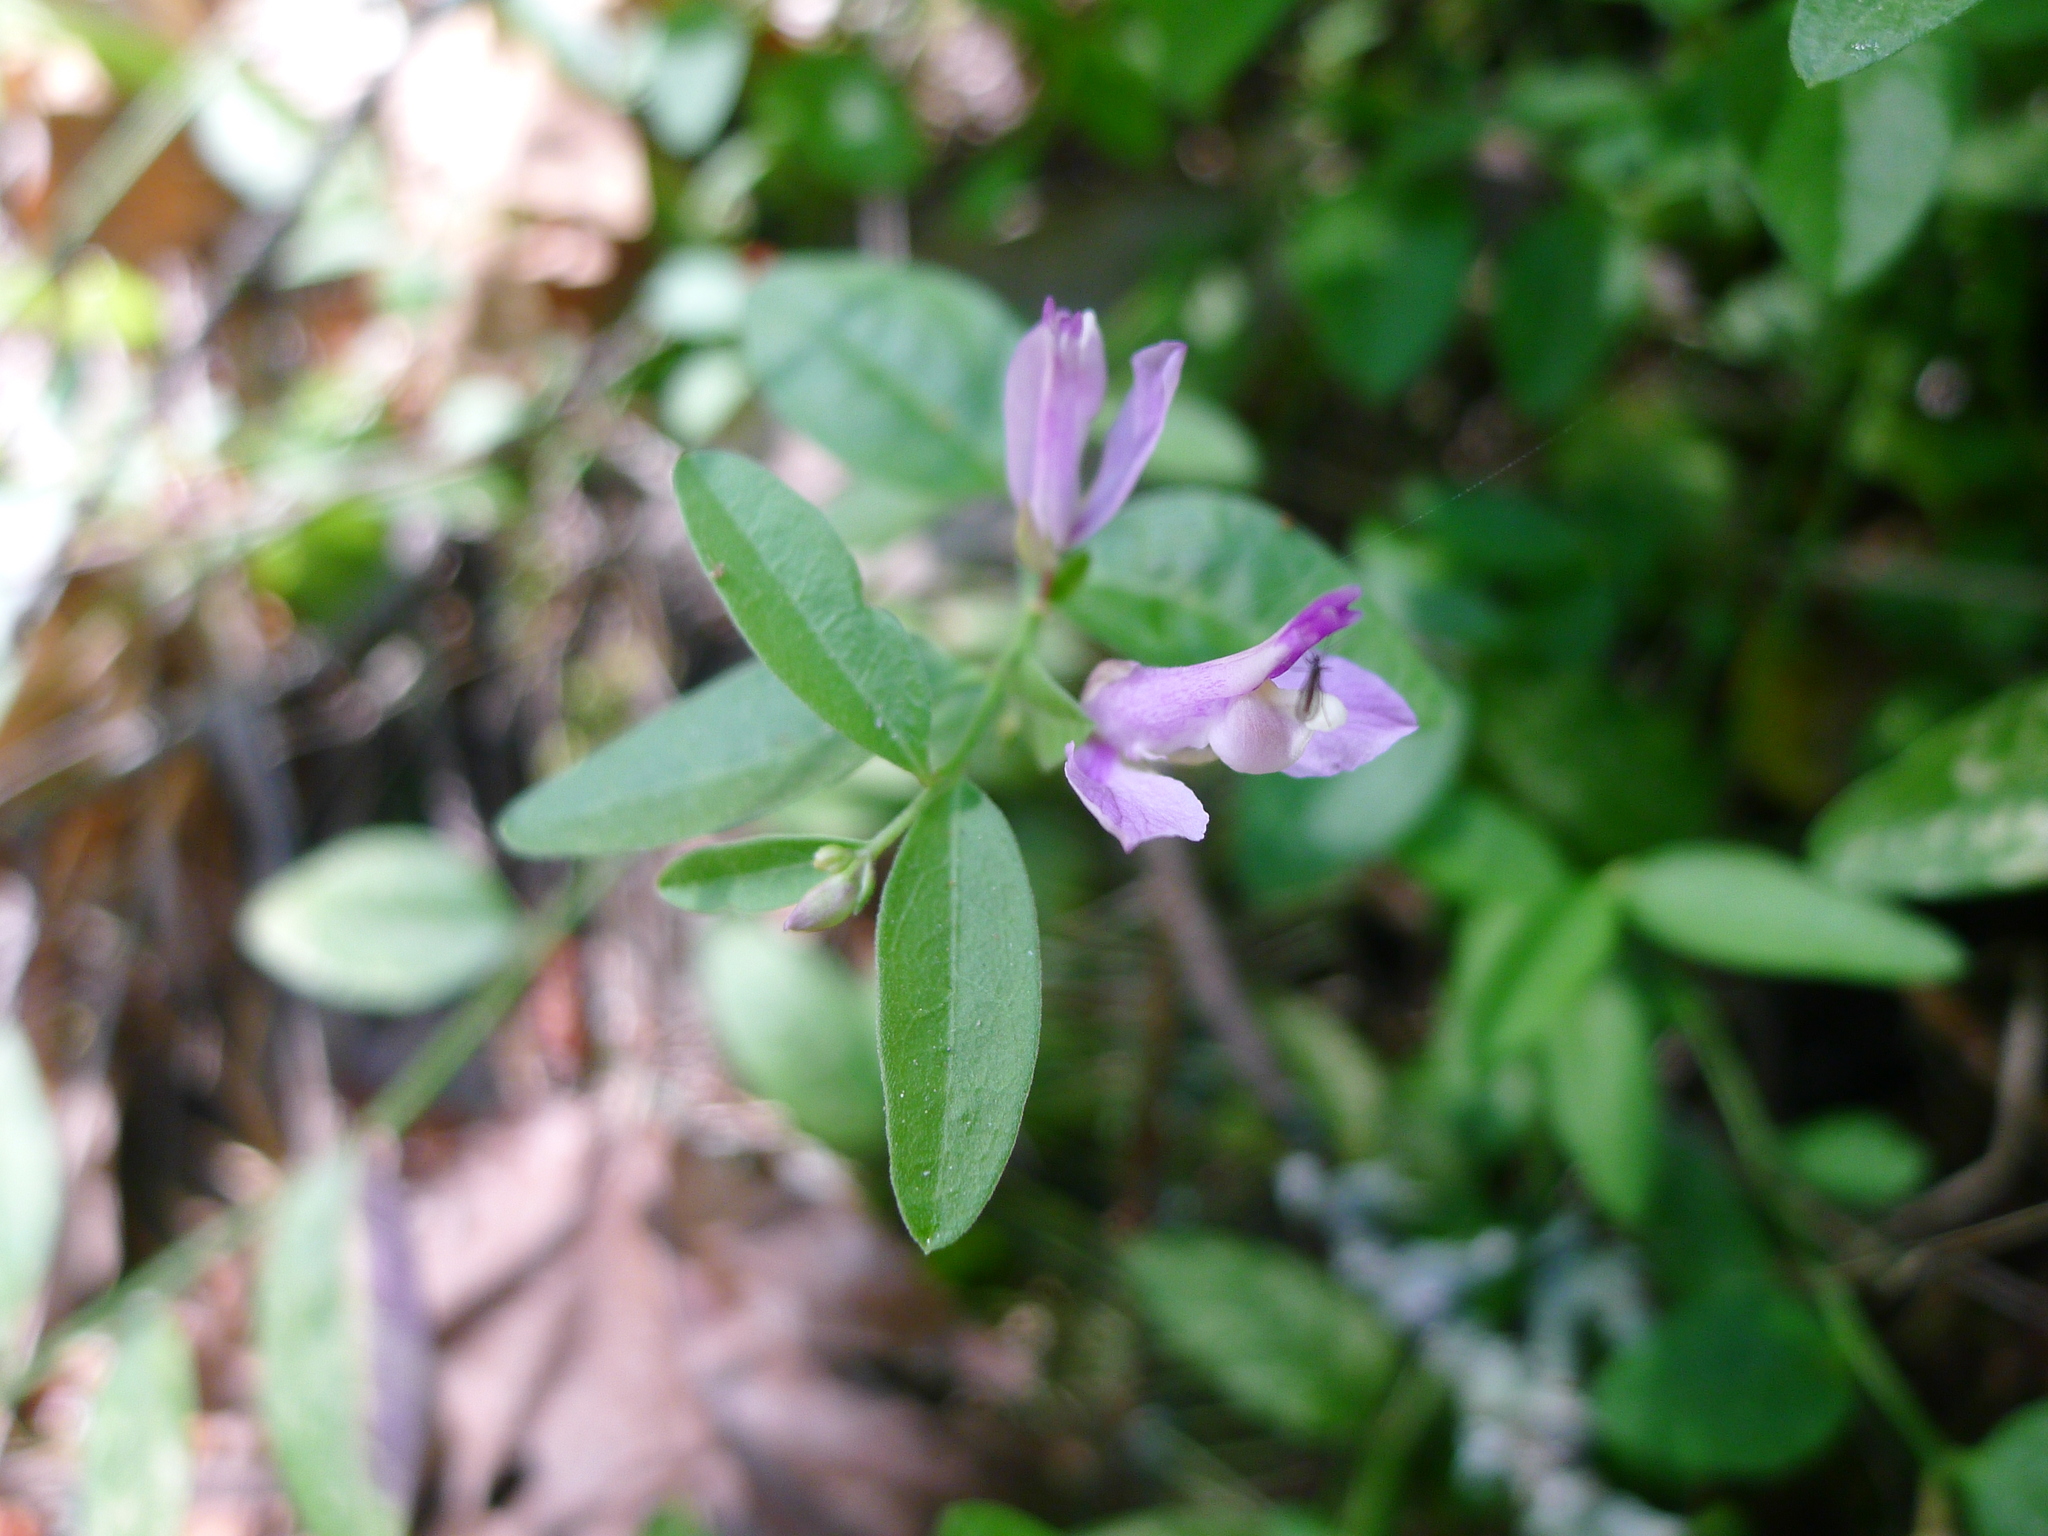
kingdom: Plantae
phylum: Tracheophyta
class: Magnoliopsida
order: Fabales
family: Polygalaceae
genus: Rhinotropis
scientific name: Rhinotropis californica
